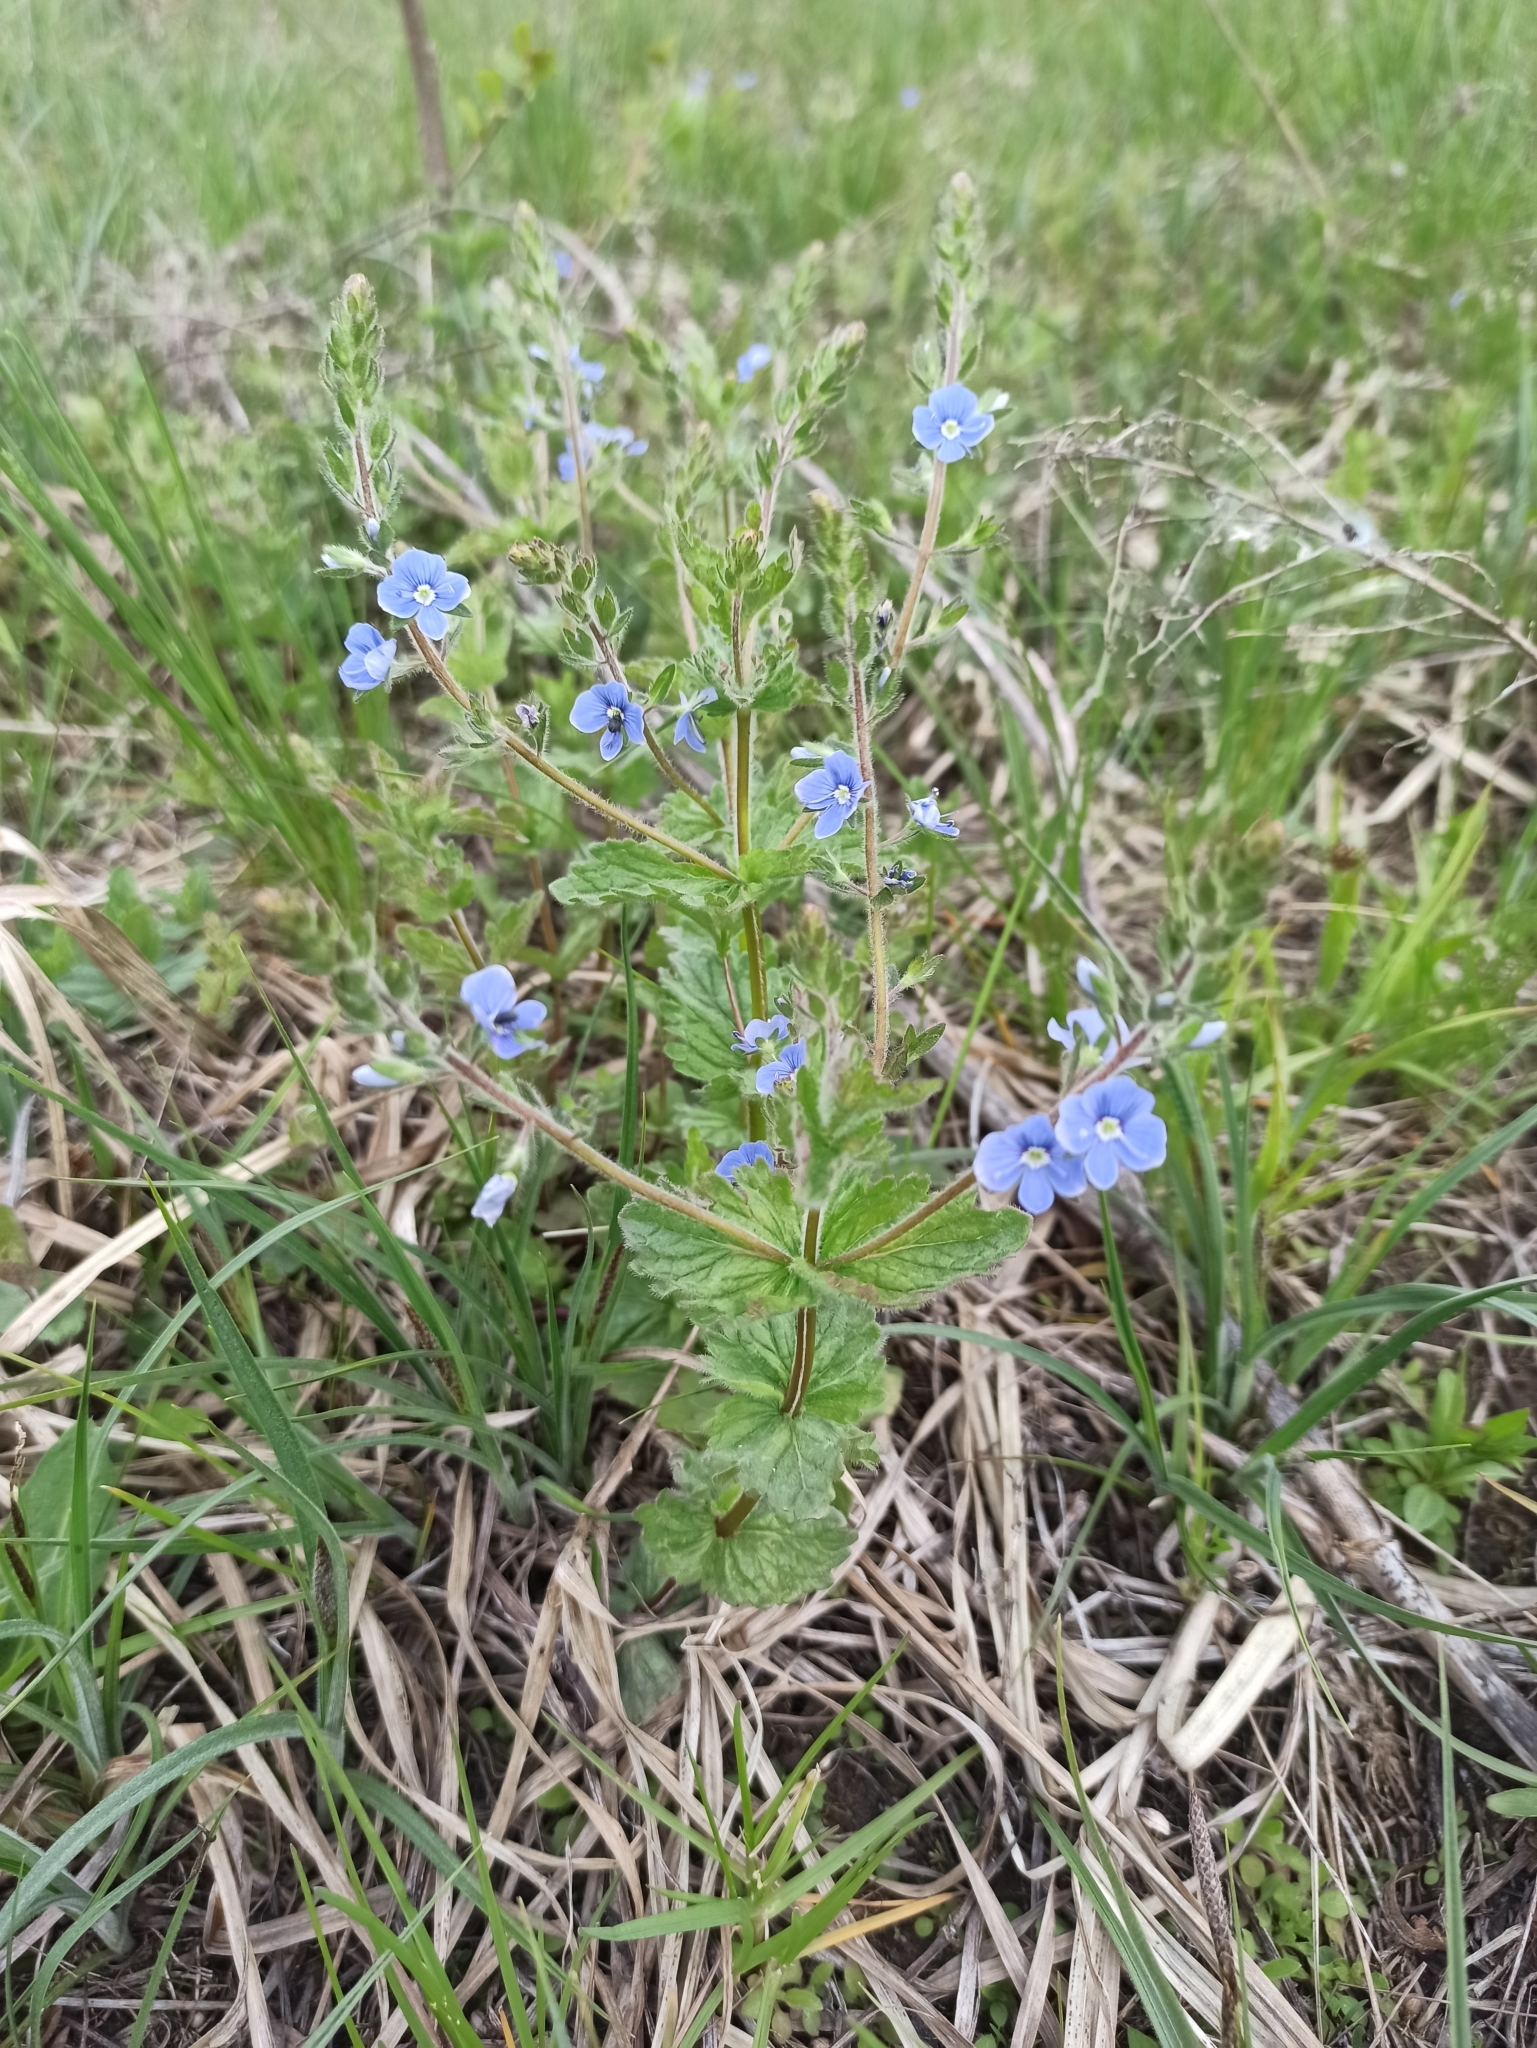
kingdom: Plantae
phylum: Tracheophyta
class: Magnoliopsida
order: Lamiales
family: Plantaginaceae
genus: Veronica
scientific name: Veronica chamaedrys
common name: Germander speedwell
